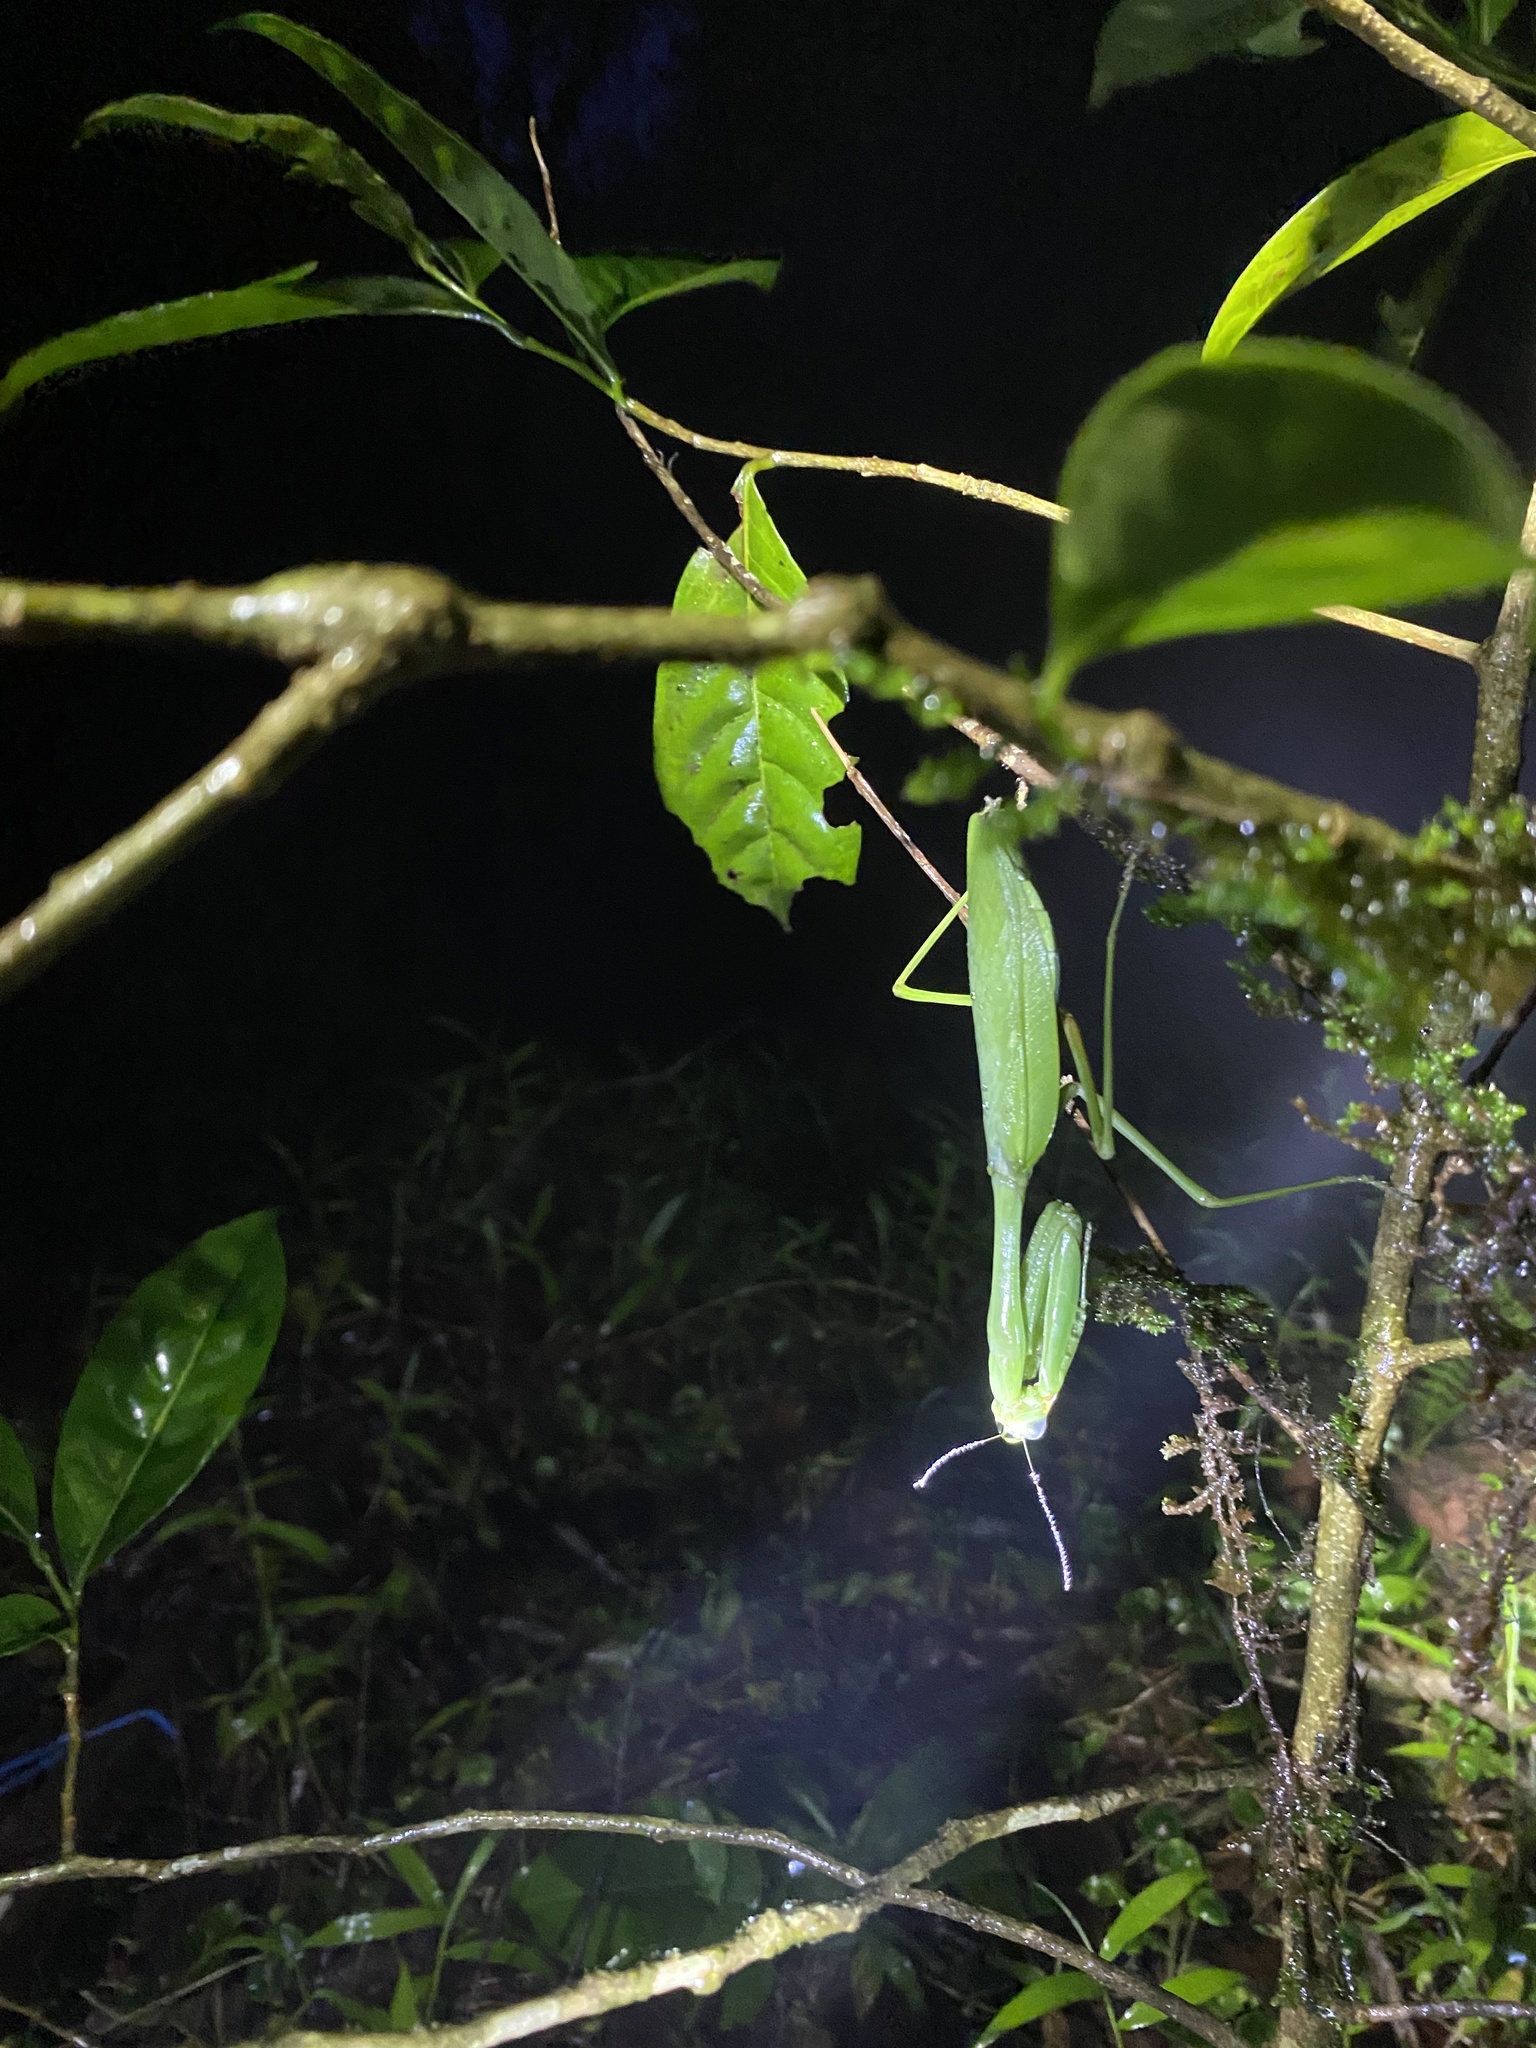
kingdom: Animalia
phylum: Arthropoda
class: Insecta
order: Mantodea
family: Mantidae
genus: Hierodula
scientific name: Hierodula membranacea
